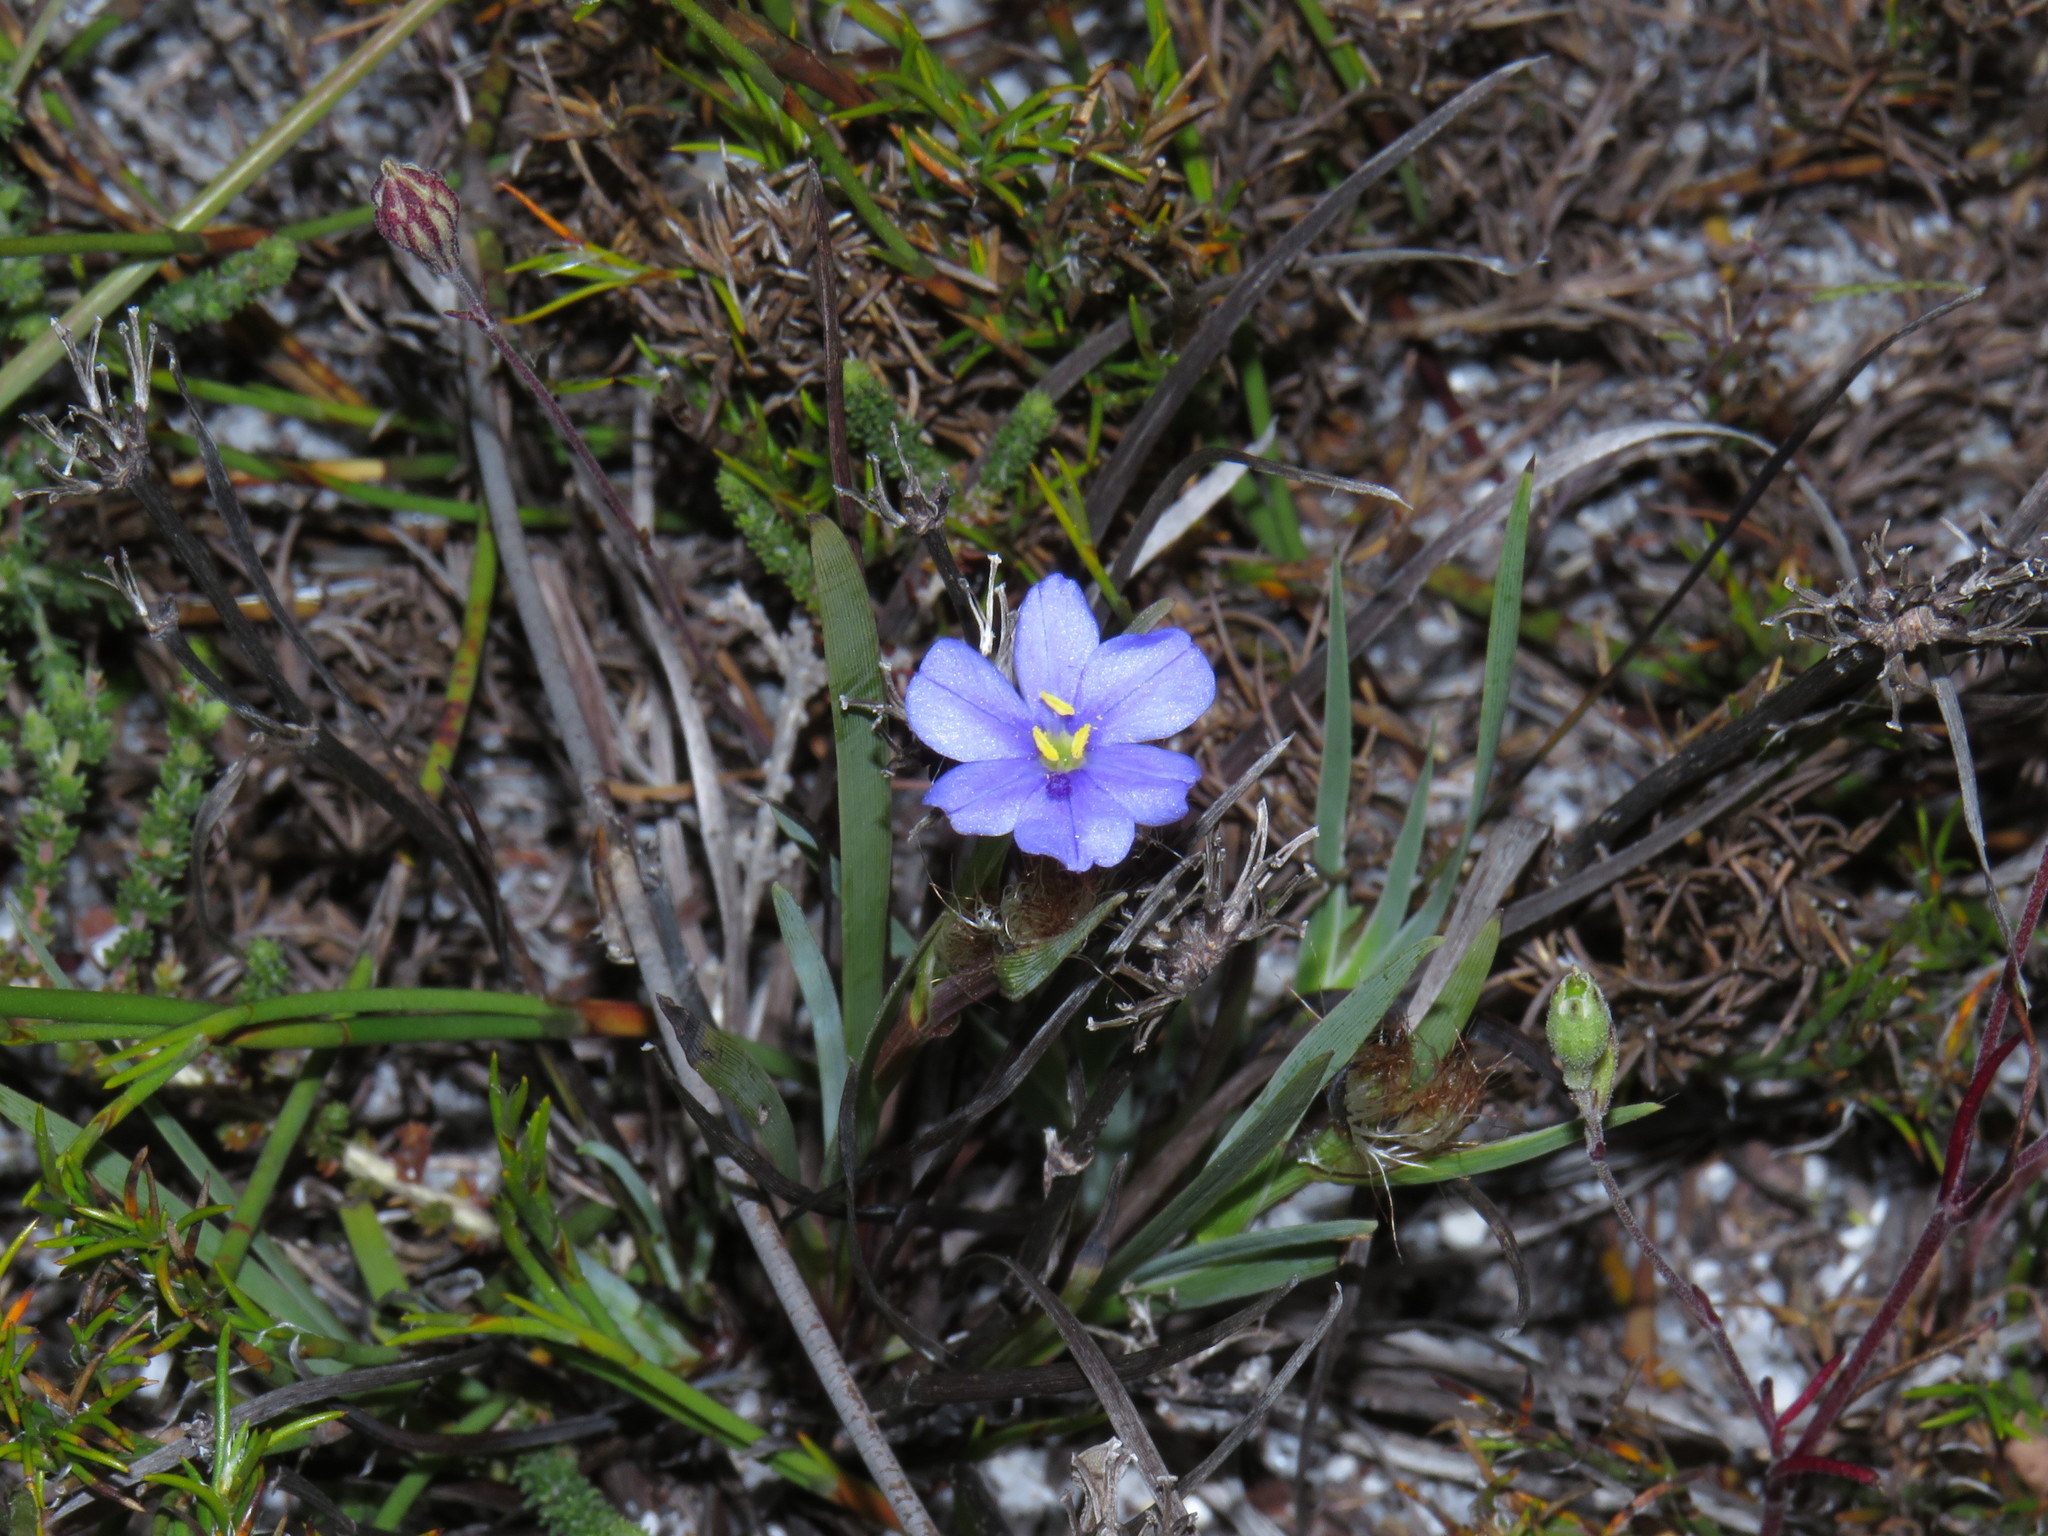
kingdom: Plantae
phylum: Tracheophyta
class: Liliopsida
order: Asparagales
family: Iridaceae
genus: Aristea
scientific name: Aristea africana
